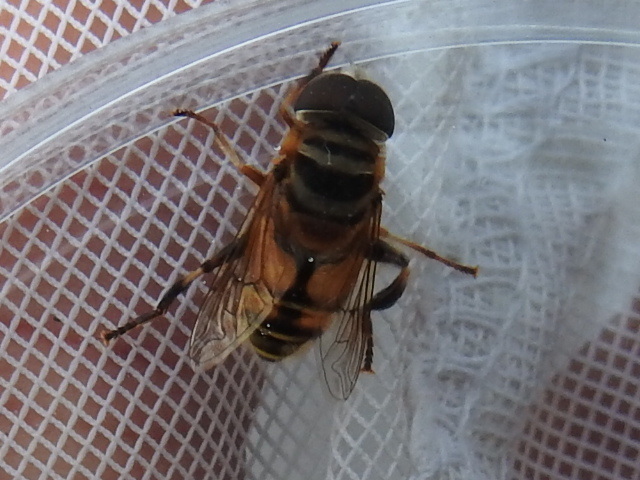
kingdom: Animalia
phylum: Arthropoda
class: Insecta
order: Diptera
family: Syrphidae
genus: Palpada
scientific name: Palpada vinetorum
